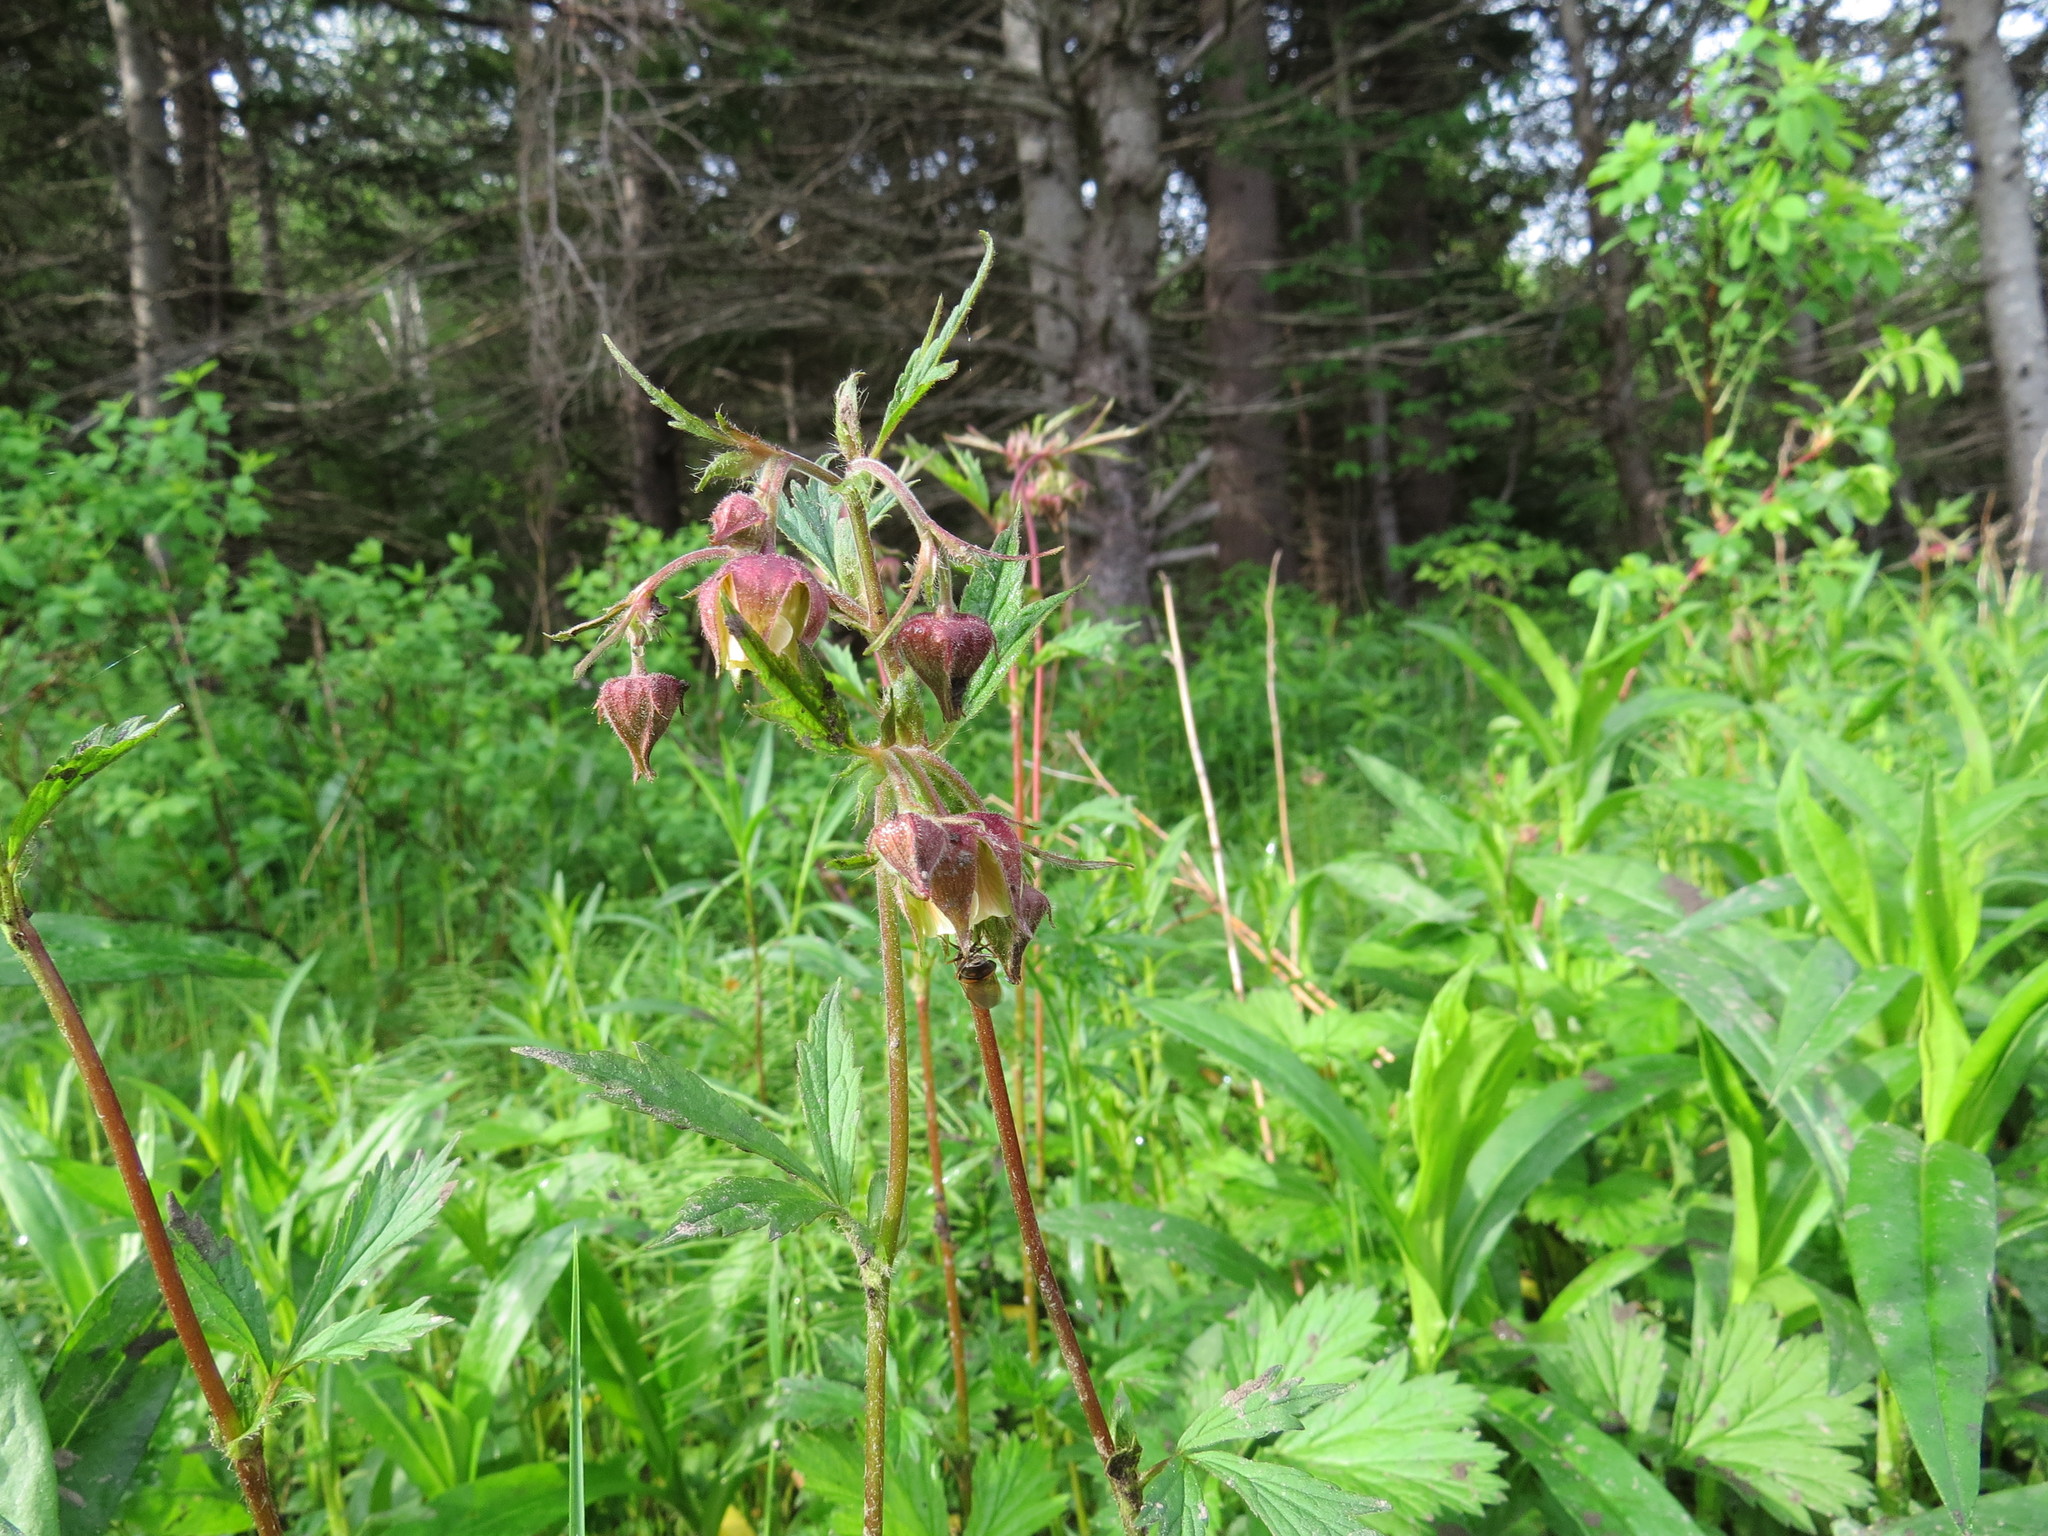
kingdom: Plantae
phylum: Tracheophyta
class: Magnoliopsida
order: Rosales
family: Rosaceae
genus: Geum
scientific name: Geum rivale
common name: Water avens
